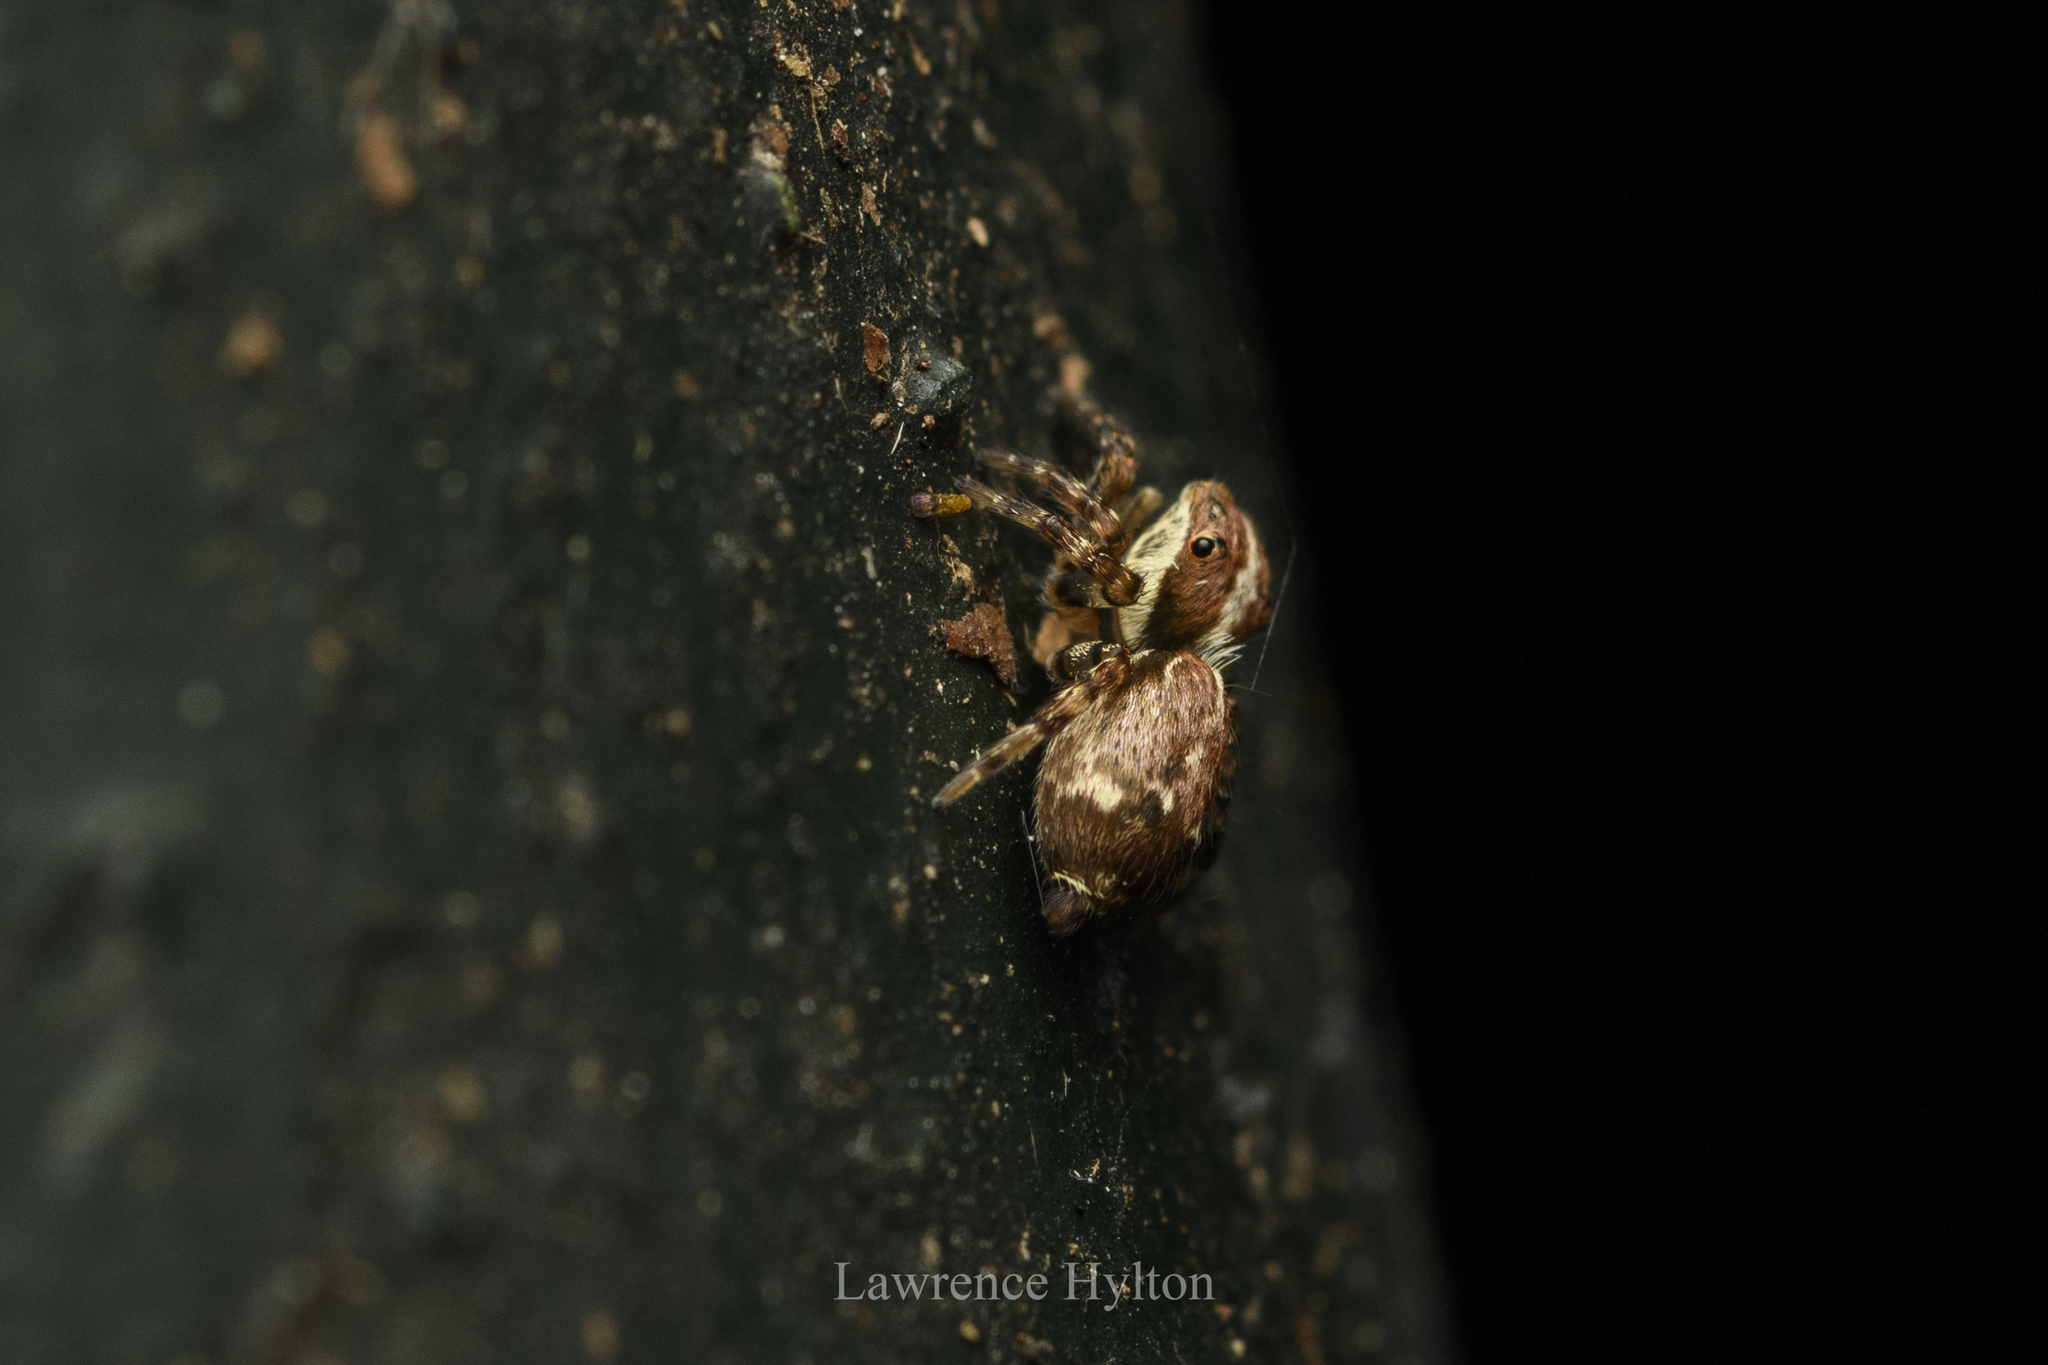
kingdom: Animalia
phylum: Arthropoda
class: Arachnida
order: Araneae
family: Salticidae
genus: Thyene
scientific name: Thyene orientalis
